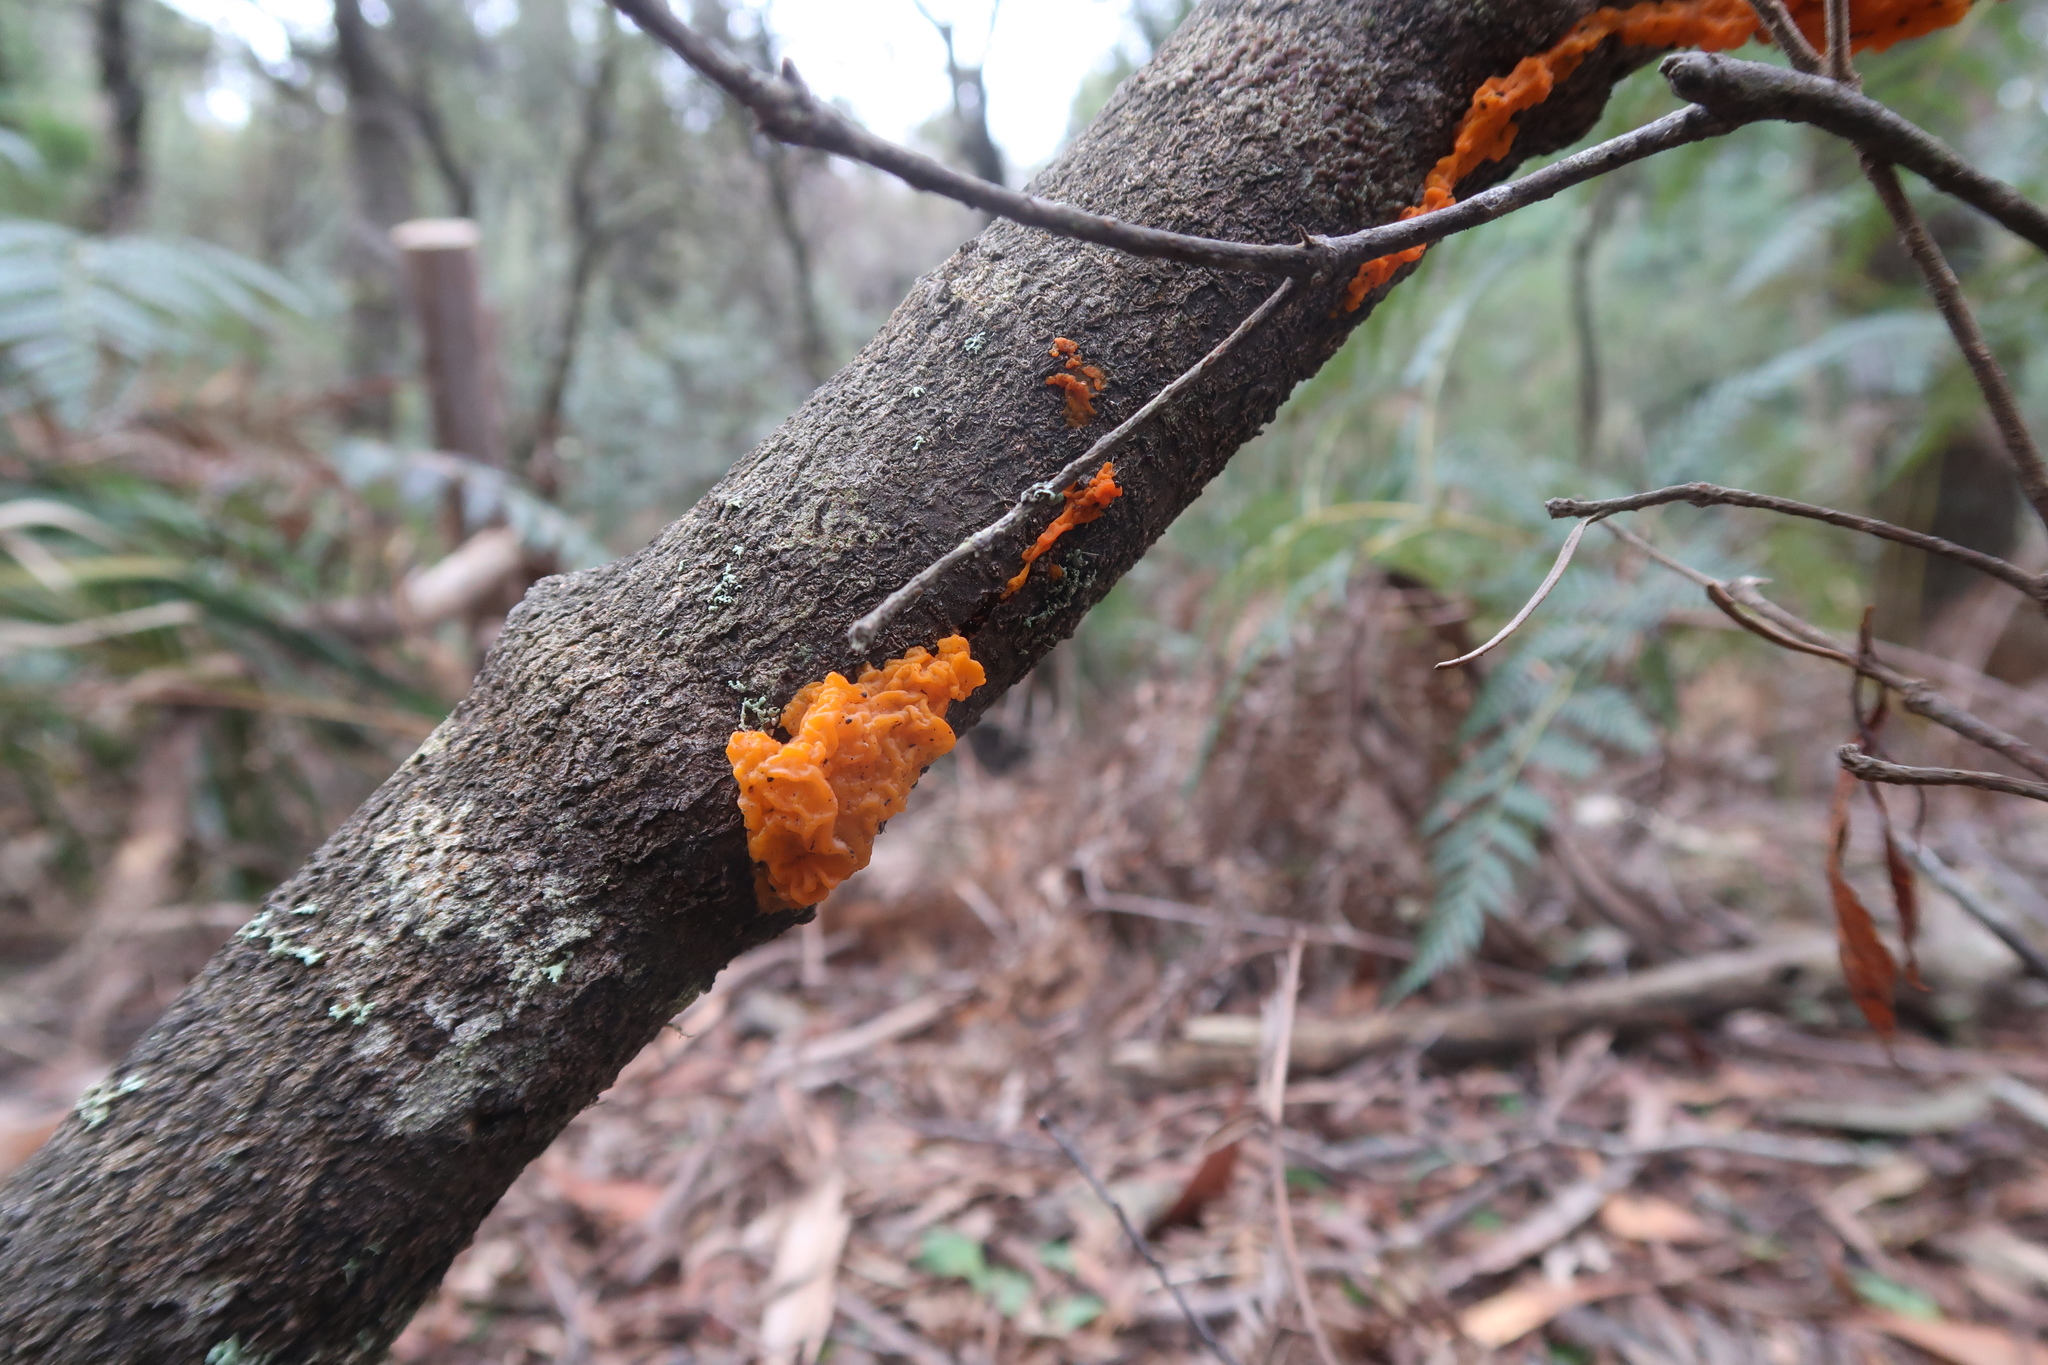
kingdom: Fungi
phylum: Basidiomycota
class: Tremellomycetes
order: Tremellales
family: Tremellaceae
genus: Tremella
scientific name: Tremella mesenterica
